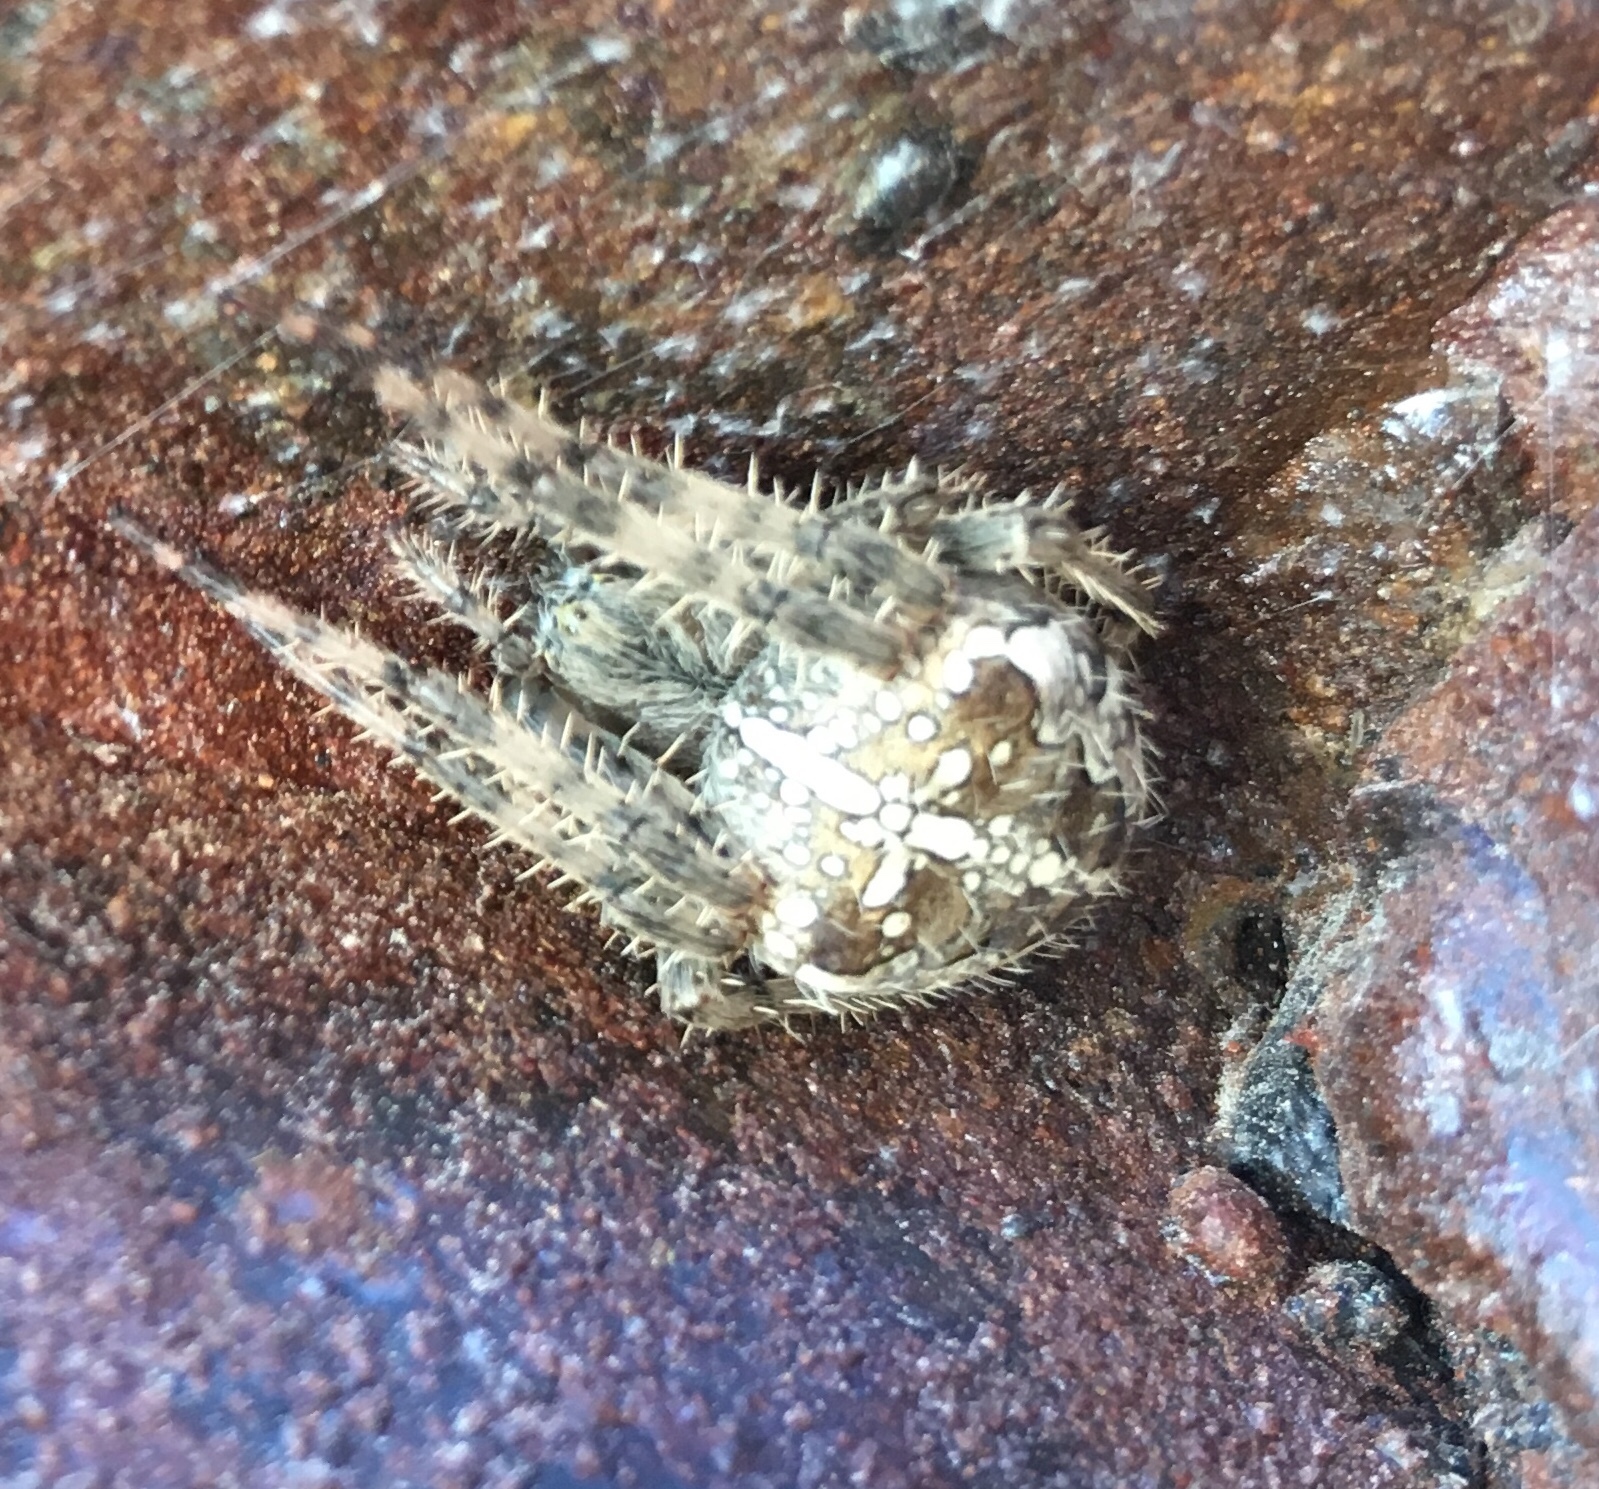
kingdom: Animalia
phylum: Arthropoda
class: Arachnida
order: Araneae
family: Araneidae
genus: Araneus
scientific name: Araneus diadematus
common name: Cross orbweaver
